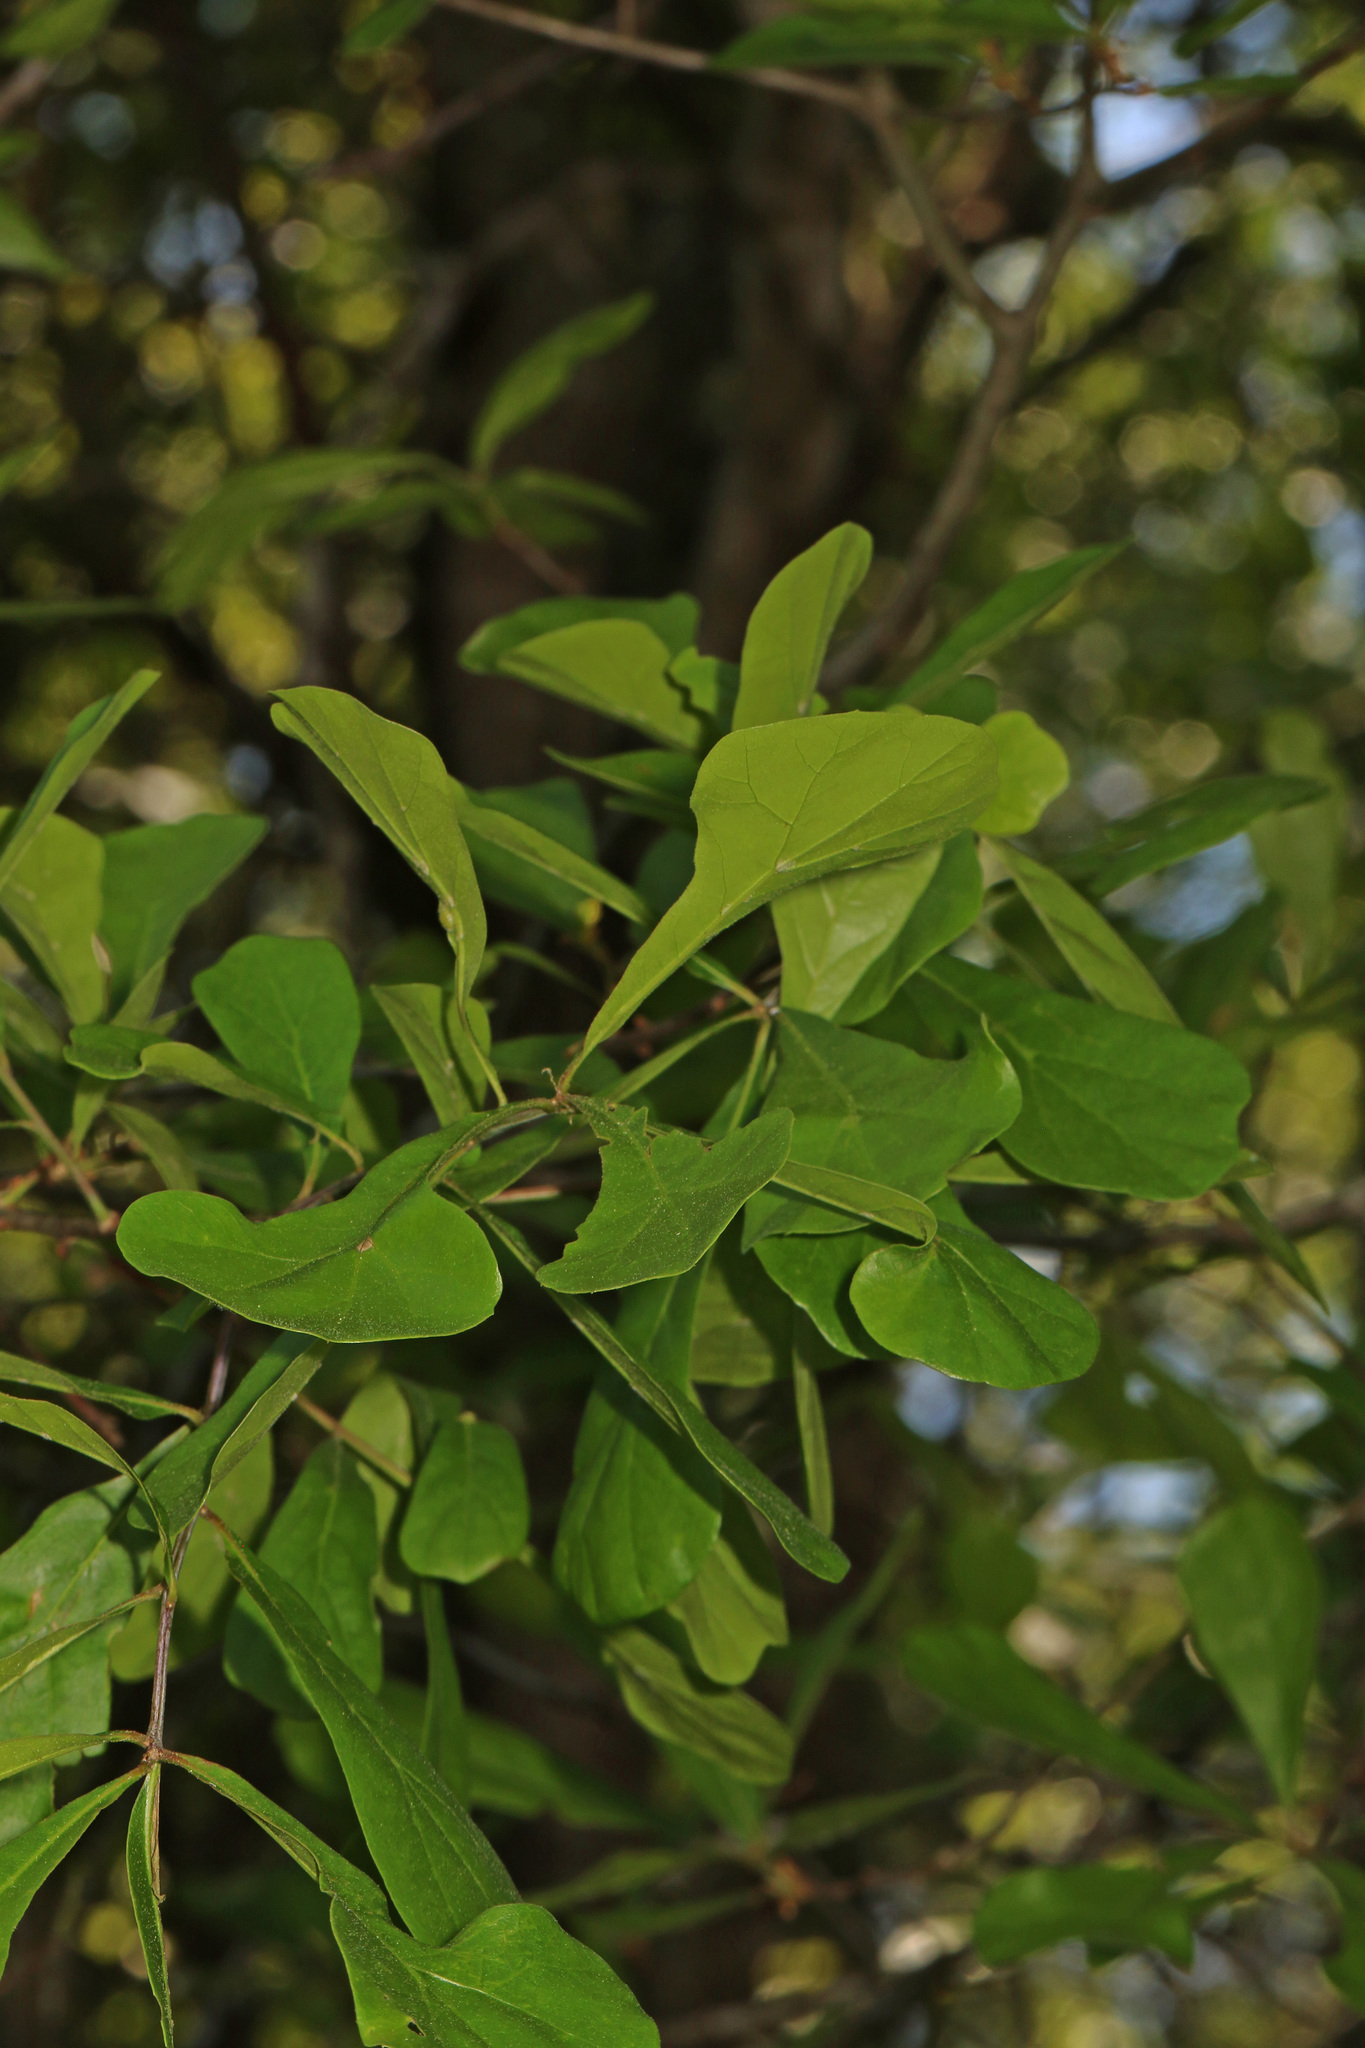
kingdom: Plantae
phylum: Tracheophyta
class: Magnoliopsida
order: Fagales
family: Fagaceae
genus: Quercus
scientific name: Quercus nigra
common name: Water oak
